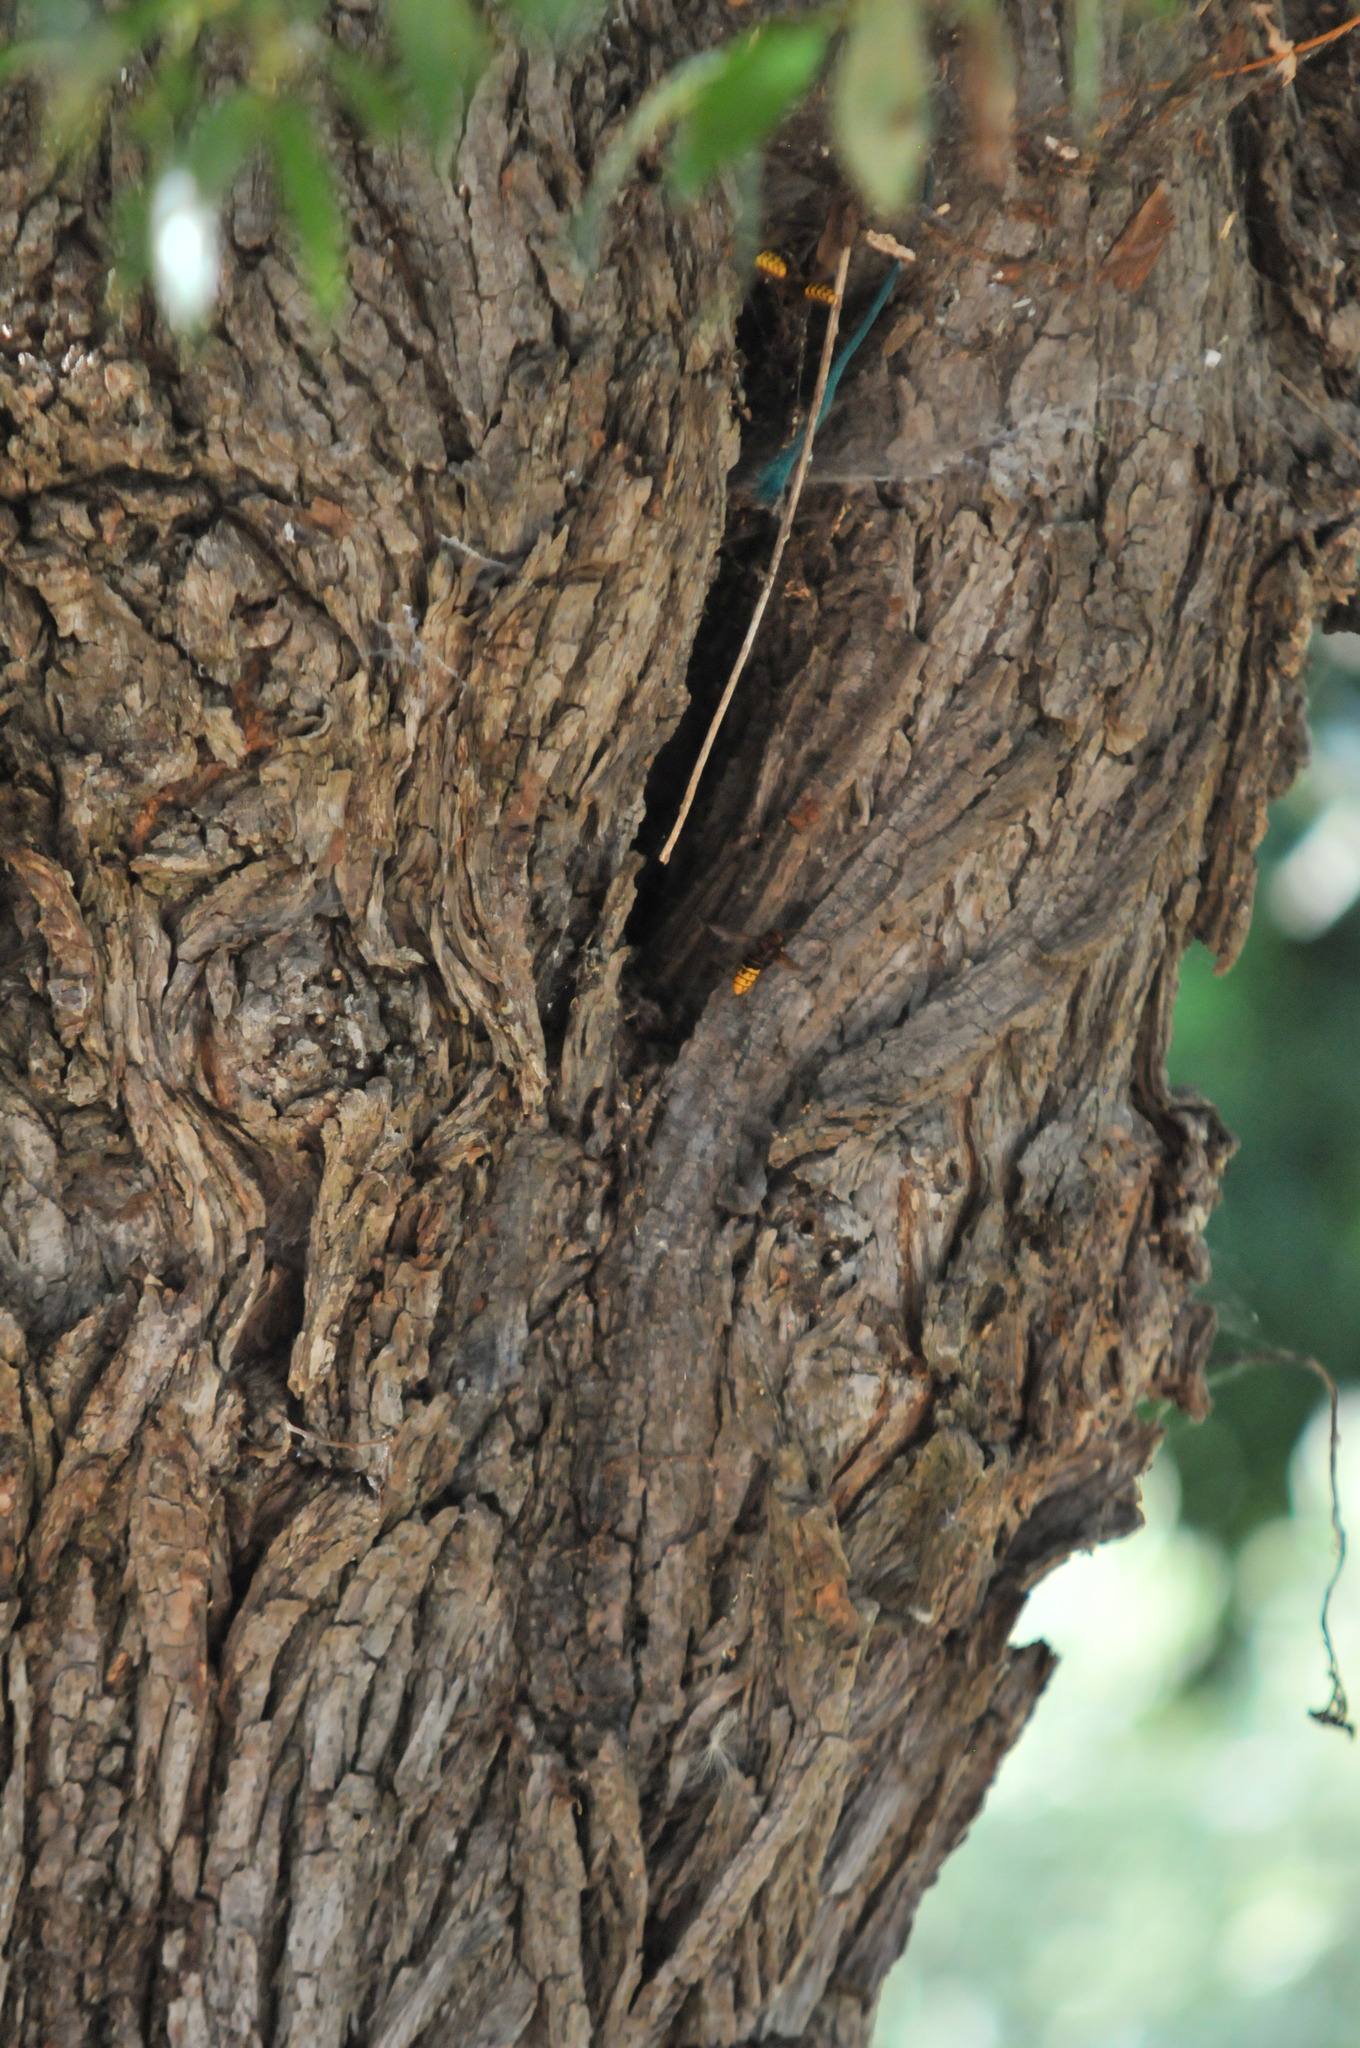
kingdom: Animalia
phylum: Arthropoda
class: Insecta
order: Hymenoptera
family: Vespidae
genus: Vespa
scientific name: Vespa crabro
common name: Hornet
